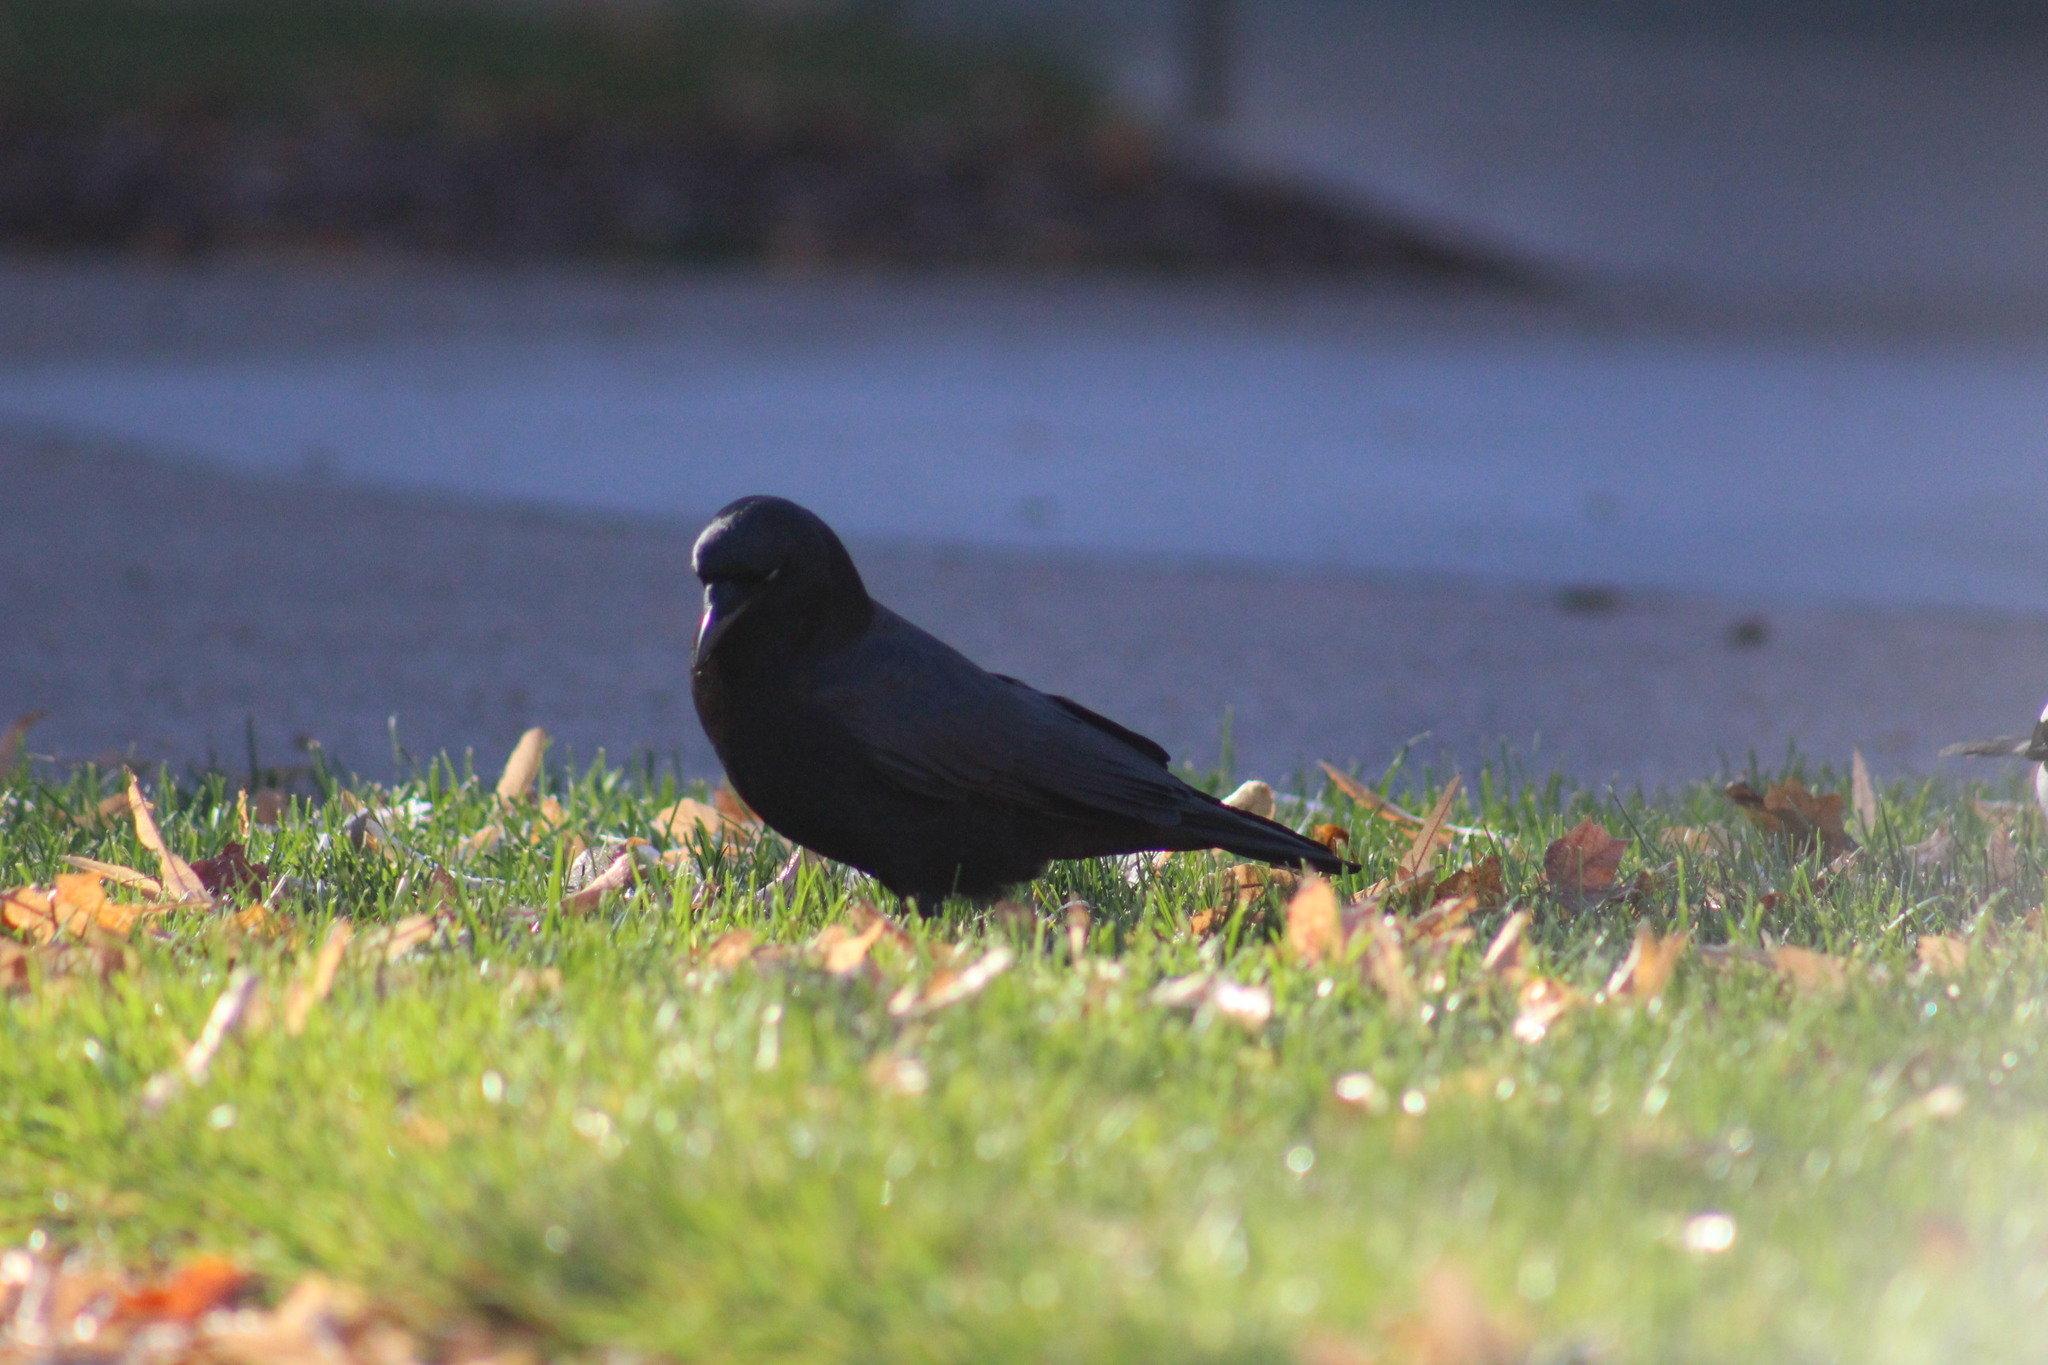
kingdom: Animalia
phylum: Chordata
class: Aves
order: Passeriformes
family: Corvidae
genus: Corvus
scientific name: Corvus brachyrhynchos
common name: American crow
